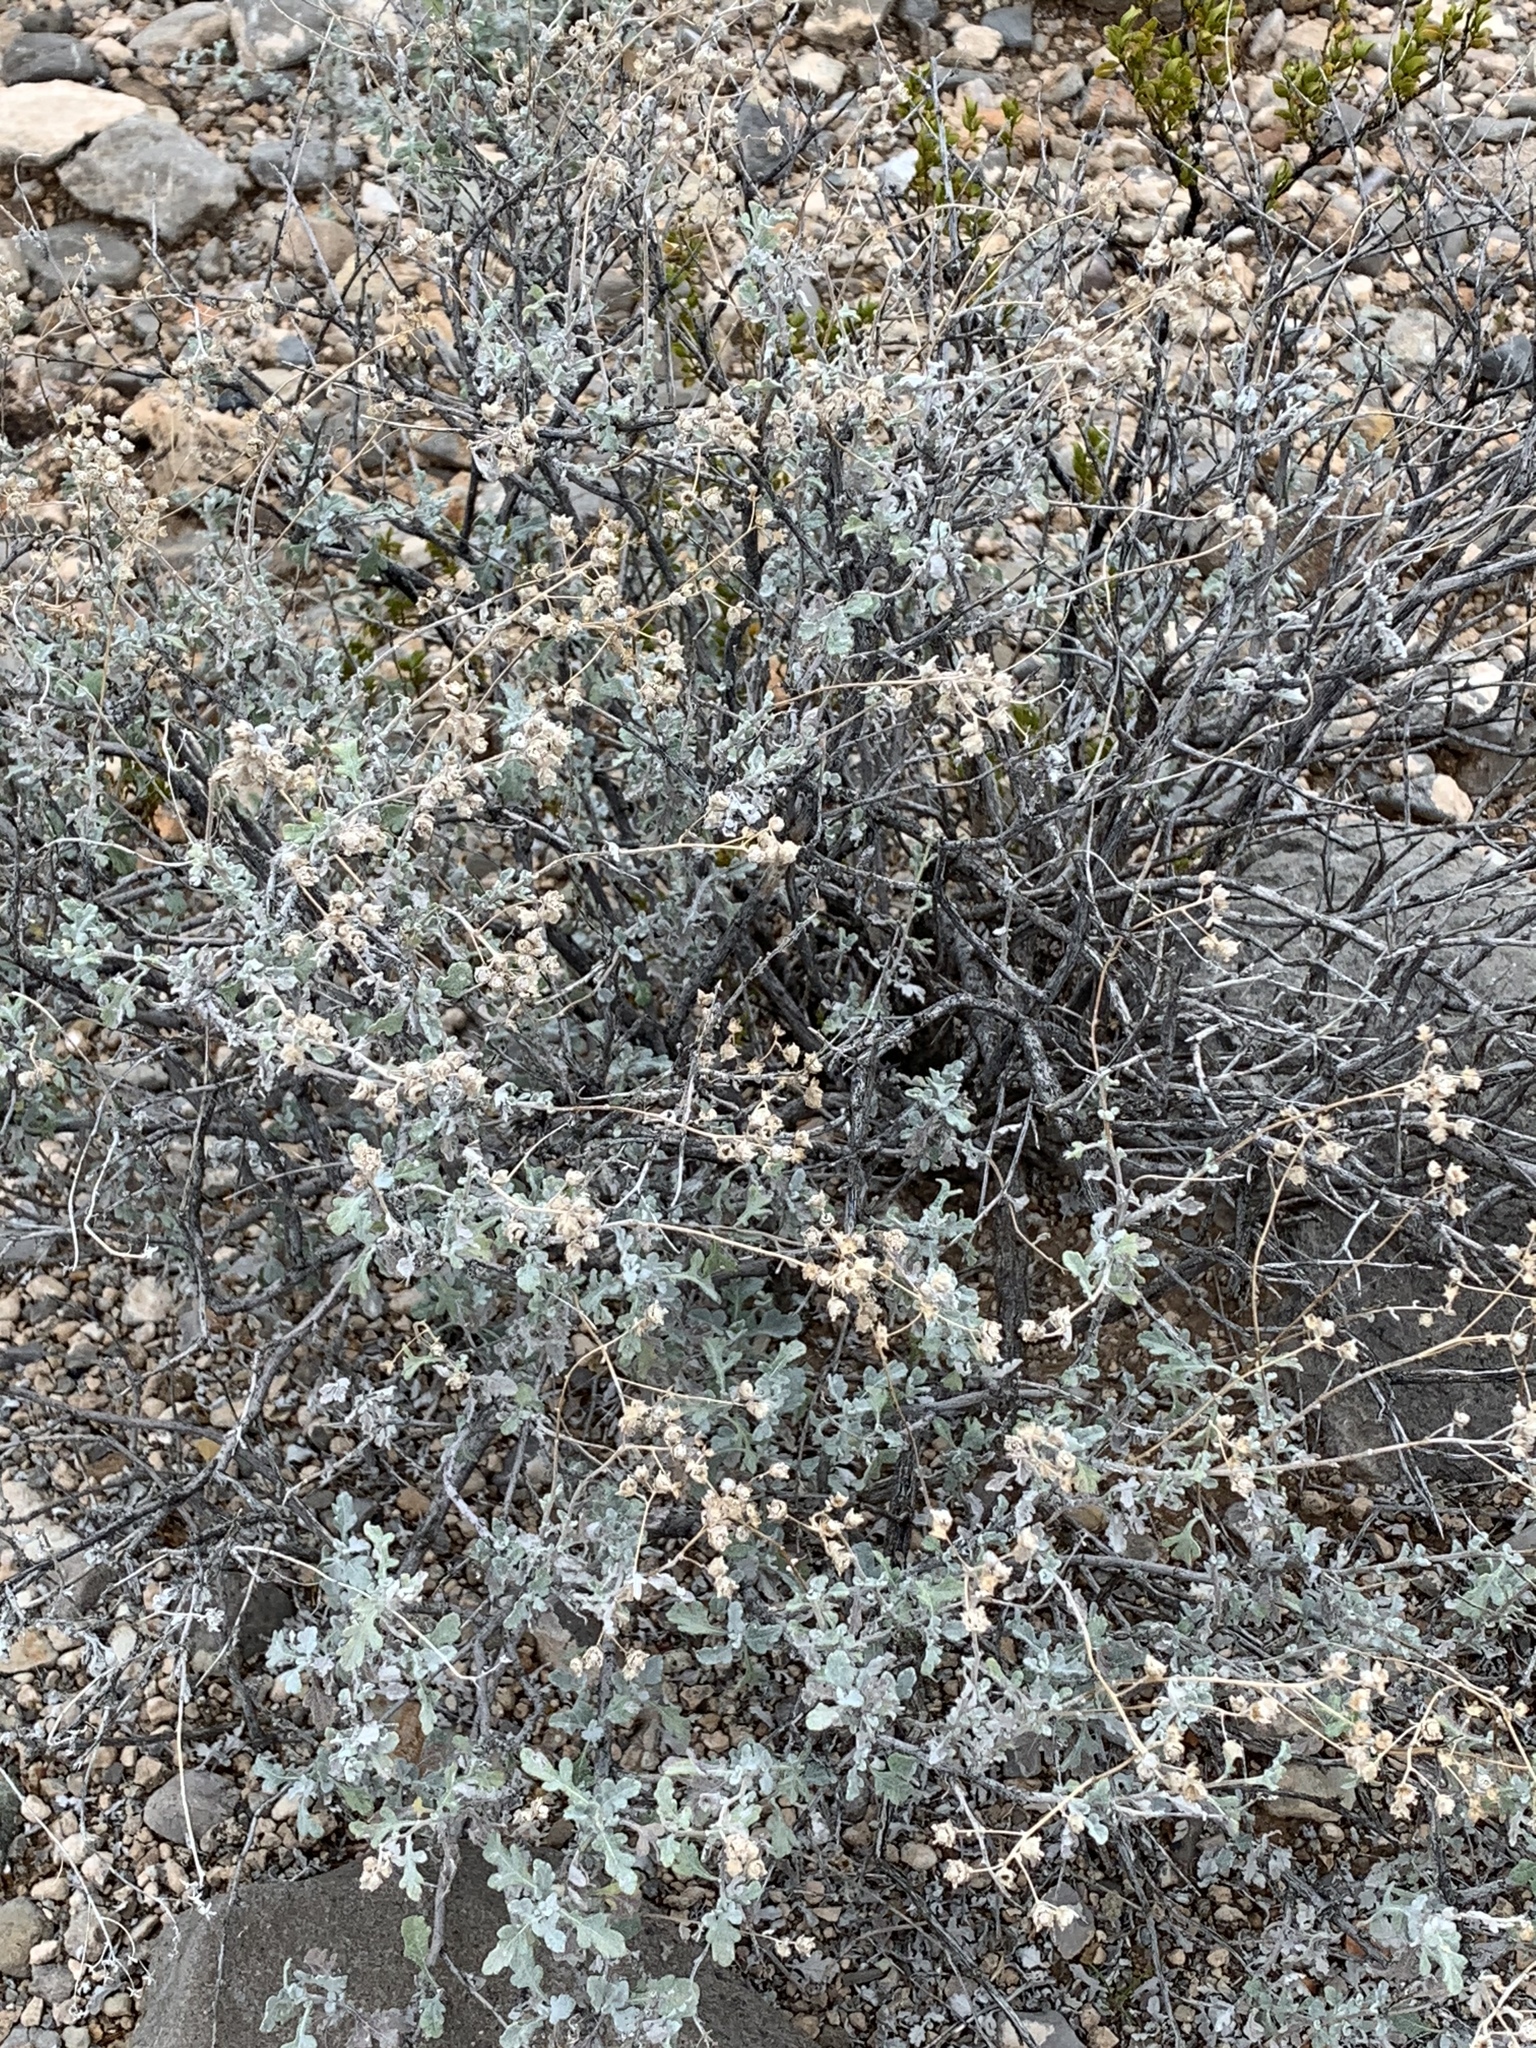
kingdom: Plantae
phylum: Tracheophyta
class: Magnoliopsida
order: Asterales
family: Asteraceae
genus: Parthenium
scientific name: Parthenium incanum
